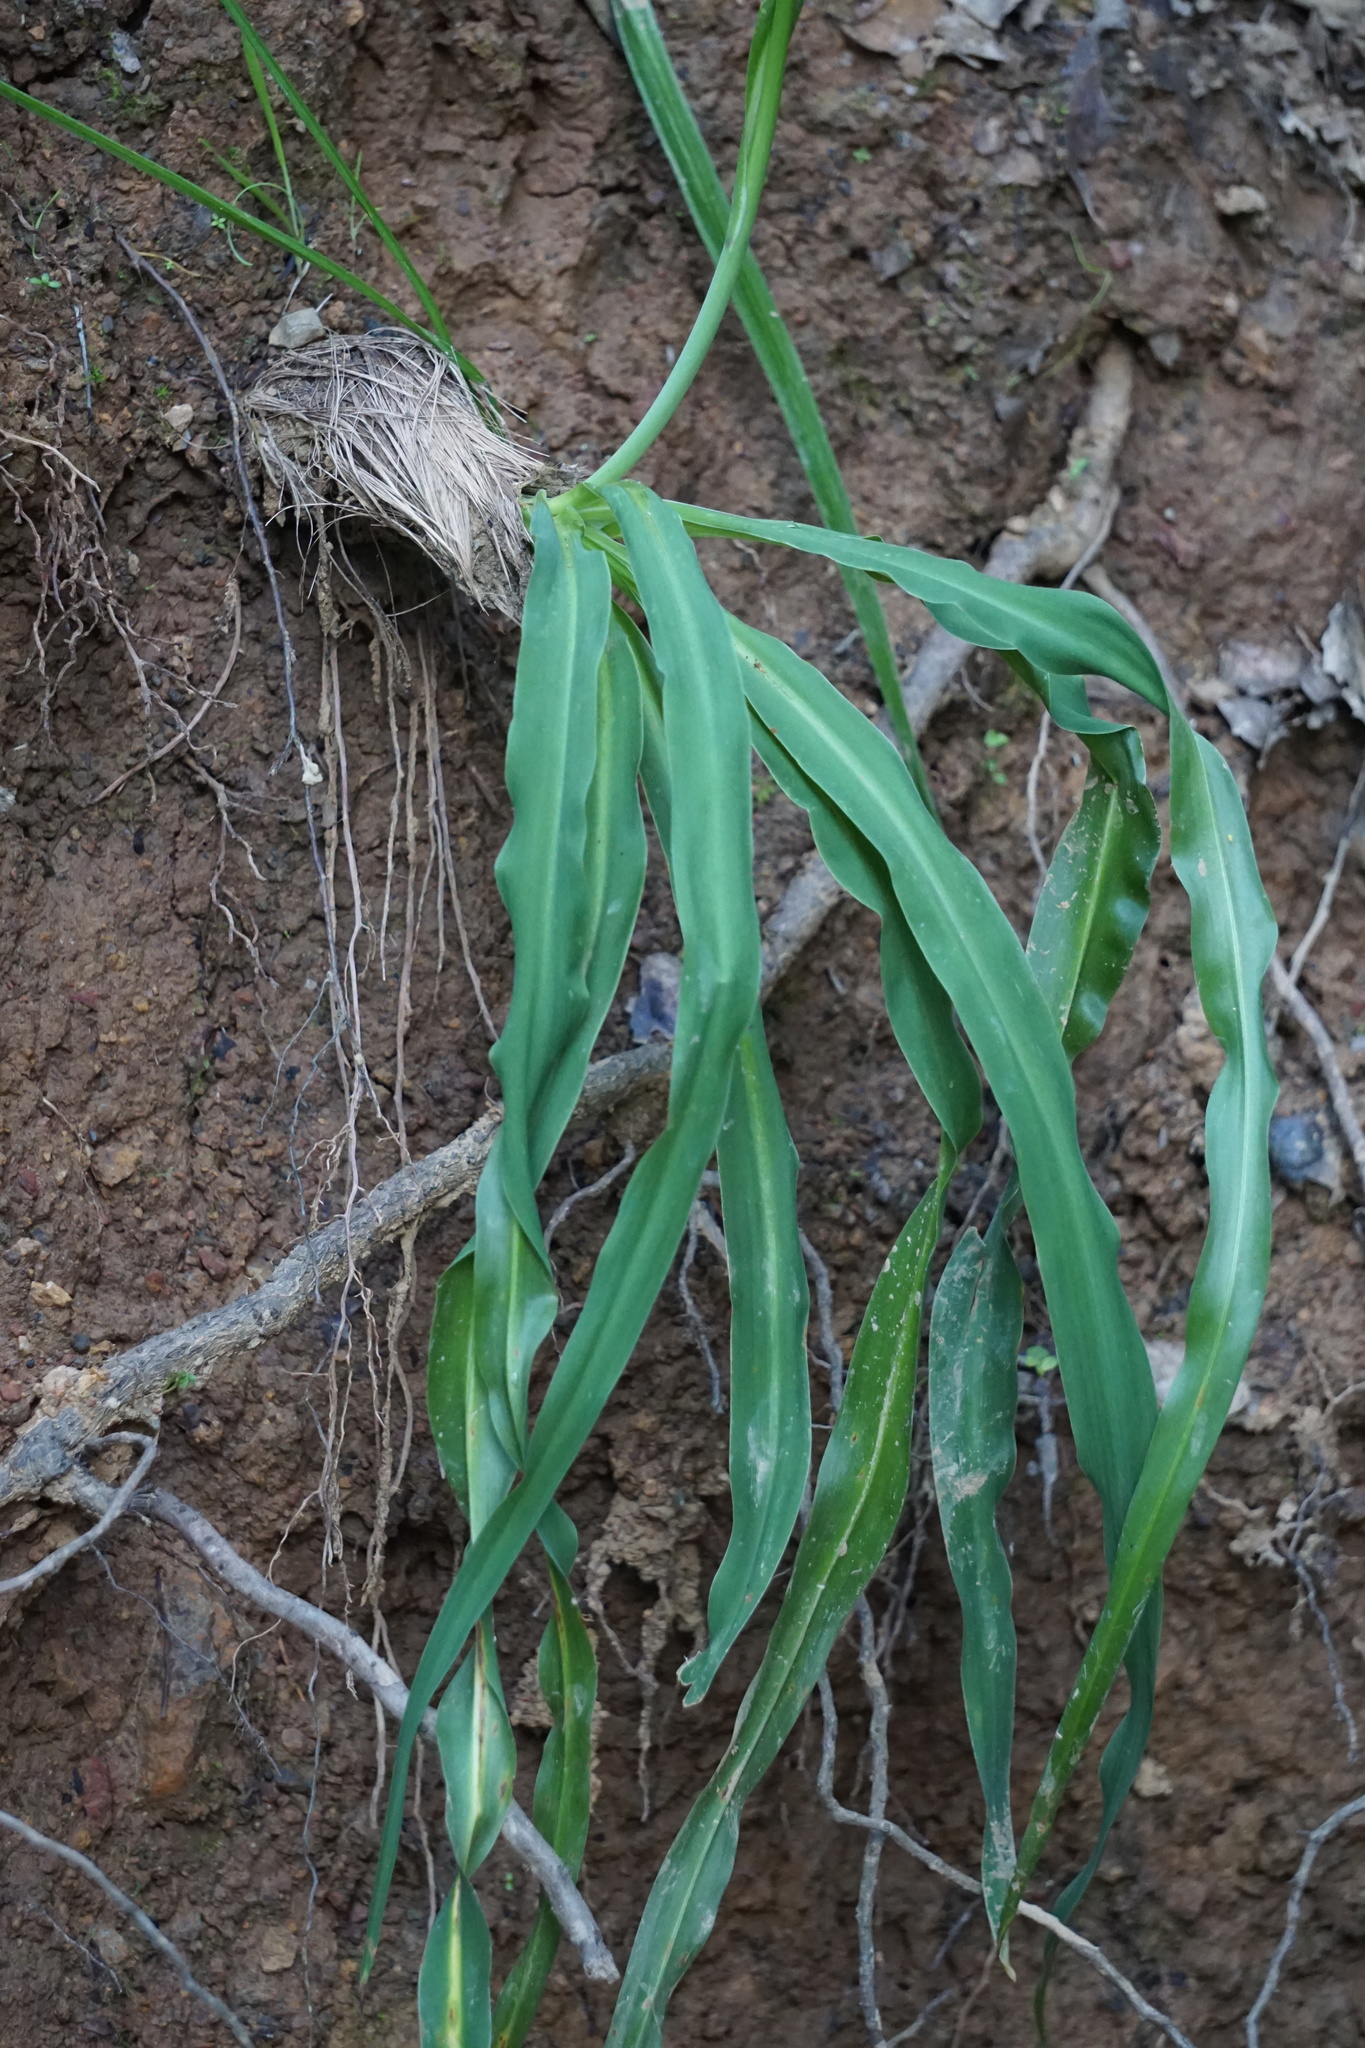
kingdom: Plantae
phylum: Tracheophyta
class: Liliopsida
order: Asparagales
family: Asparagaceae
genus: Chlorogalum
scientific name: Chlorogalum pomeridianum
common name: Amole
